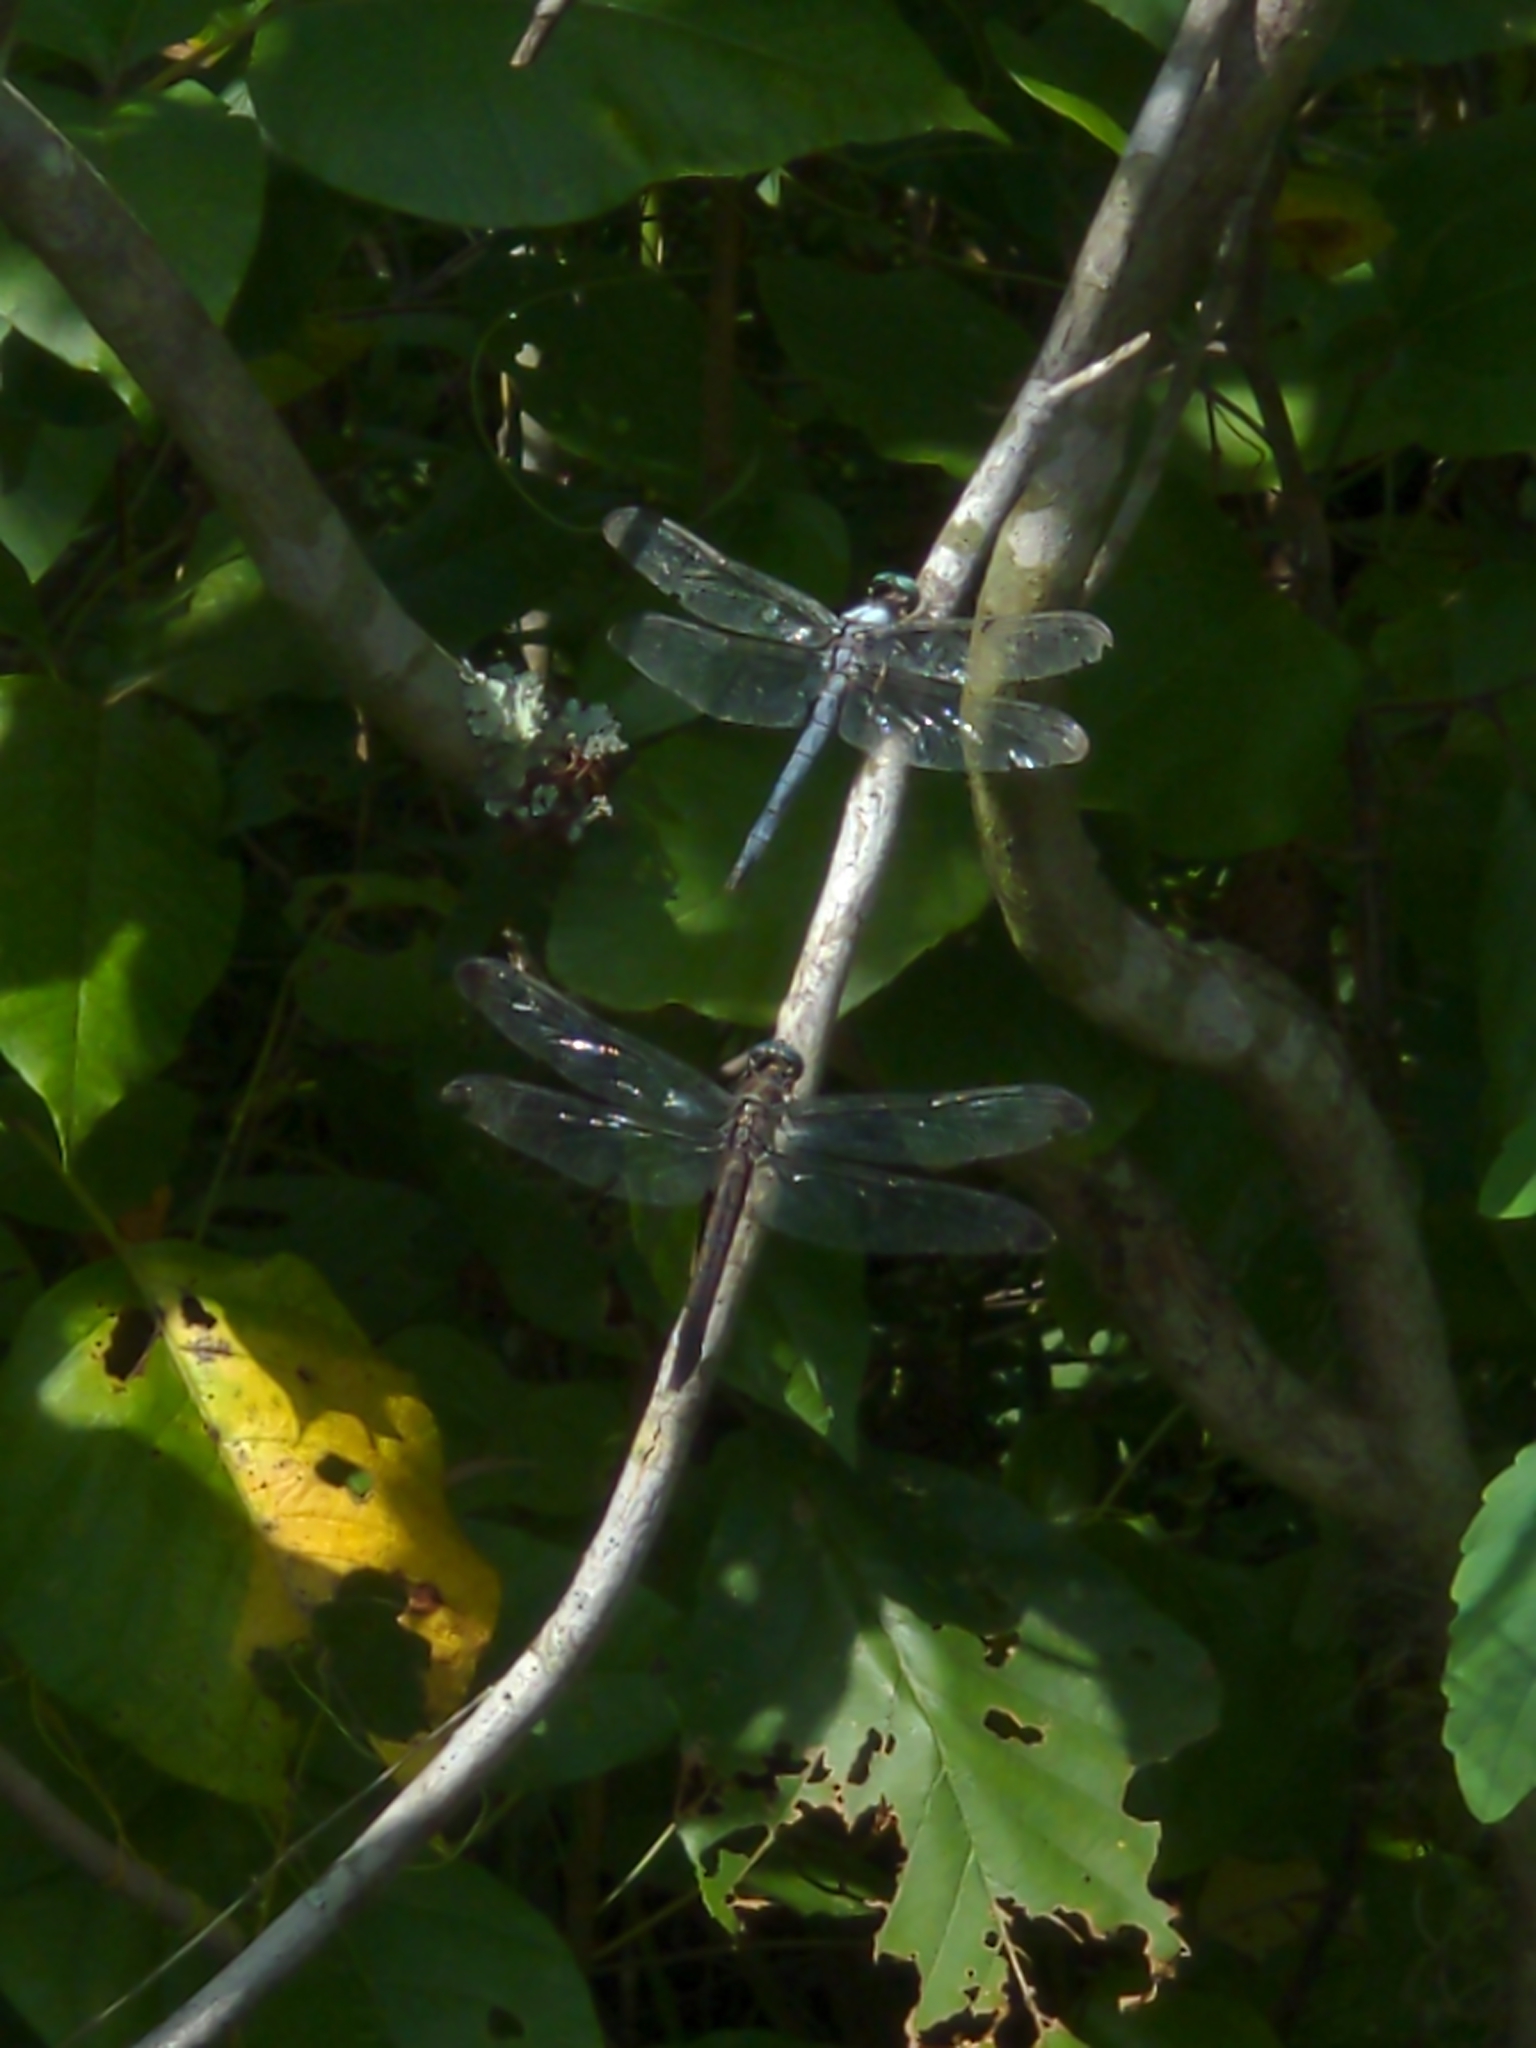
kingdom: Animalia
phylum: Arthropoda
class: Insecta
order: Odonata
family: Libellulidae
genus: Libellula
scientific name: Libellula vibrans
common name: Great blue skimmer
